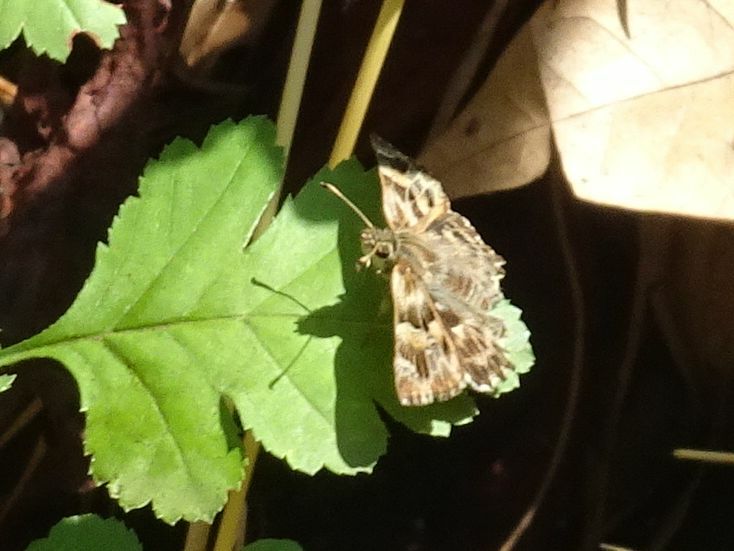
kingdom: Animalia
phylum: Arthropoda
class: Insecta
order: Lepidoptera
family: Hesperiidae
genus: Carcharodus
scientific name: Carcharodus alceae
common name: Mallow skipper
